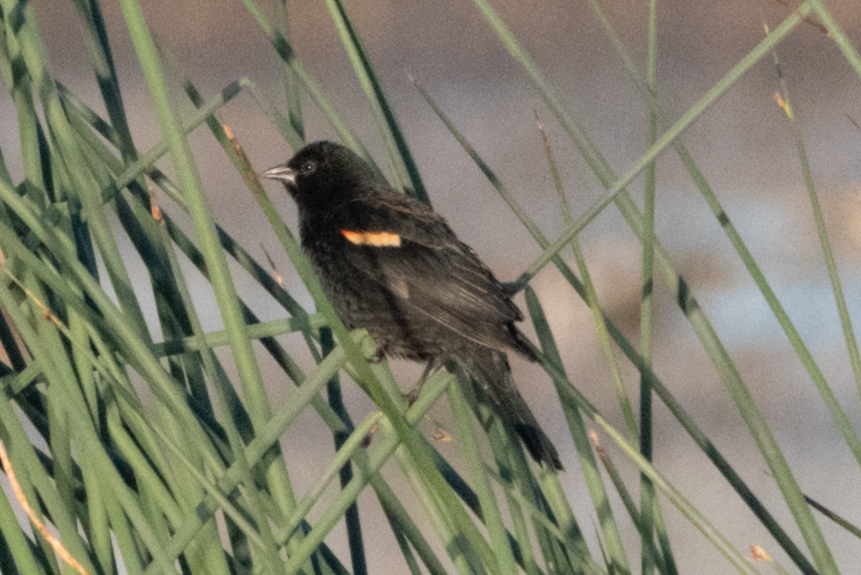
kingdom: Animalia
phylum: Chordata
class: Aves
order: Passeriformes
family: Icteridae
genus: Agelaius
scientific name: Agelaius phoeniceus
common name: Red-winged blackbird
